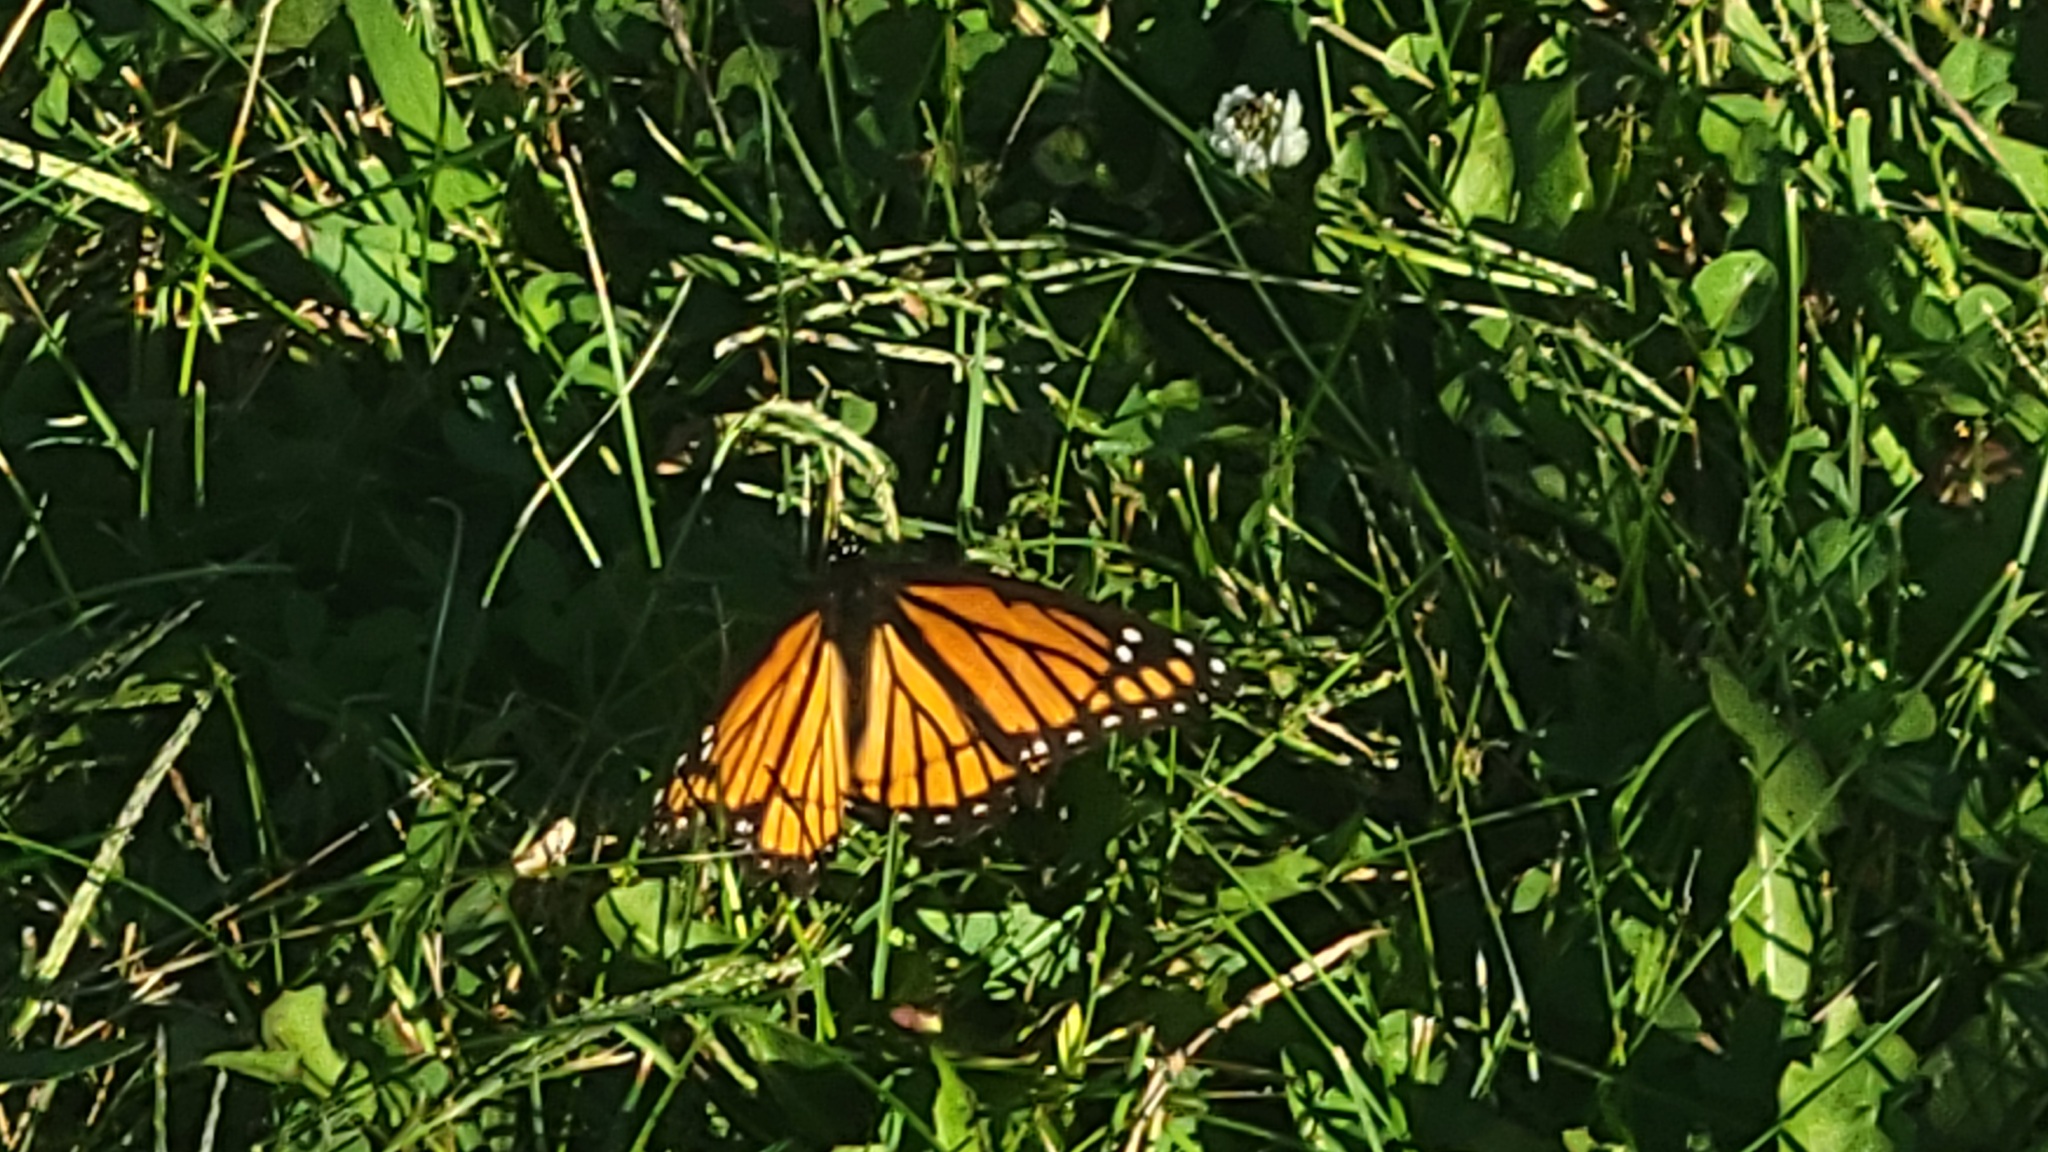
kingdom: Animalia
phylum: Arthropoda
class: Insecta
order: Lepidoptera
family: Nymphalidae
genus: Limenitis
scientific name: Limenitis archippus
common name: Viceroy
